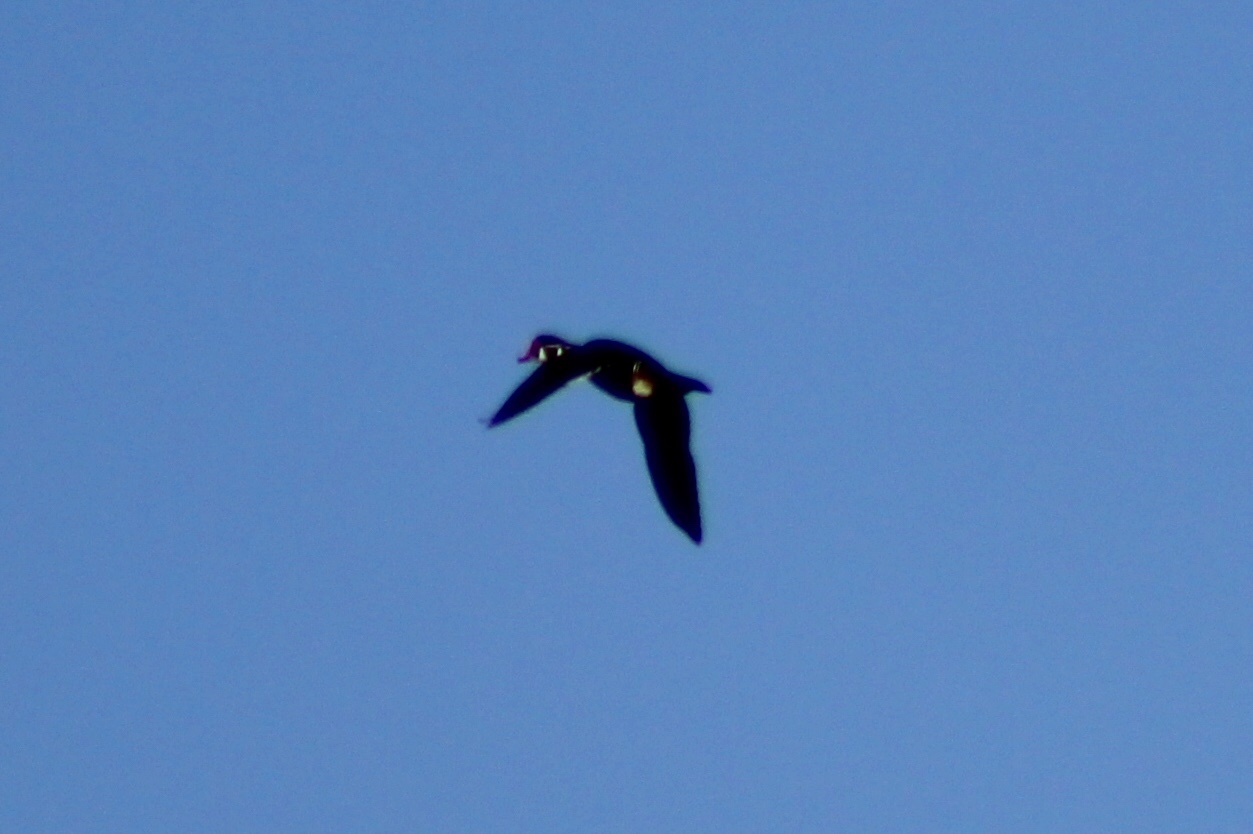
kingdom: Animalia
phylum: Chordata
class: Aves
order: Anseriformes
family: Anatidae
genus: Aix
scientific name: Aix sponsa
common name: Wood duck
